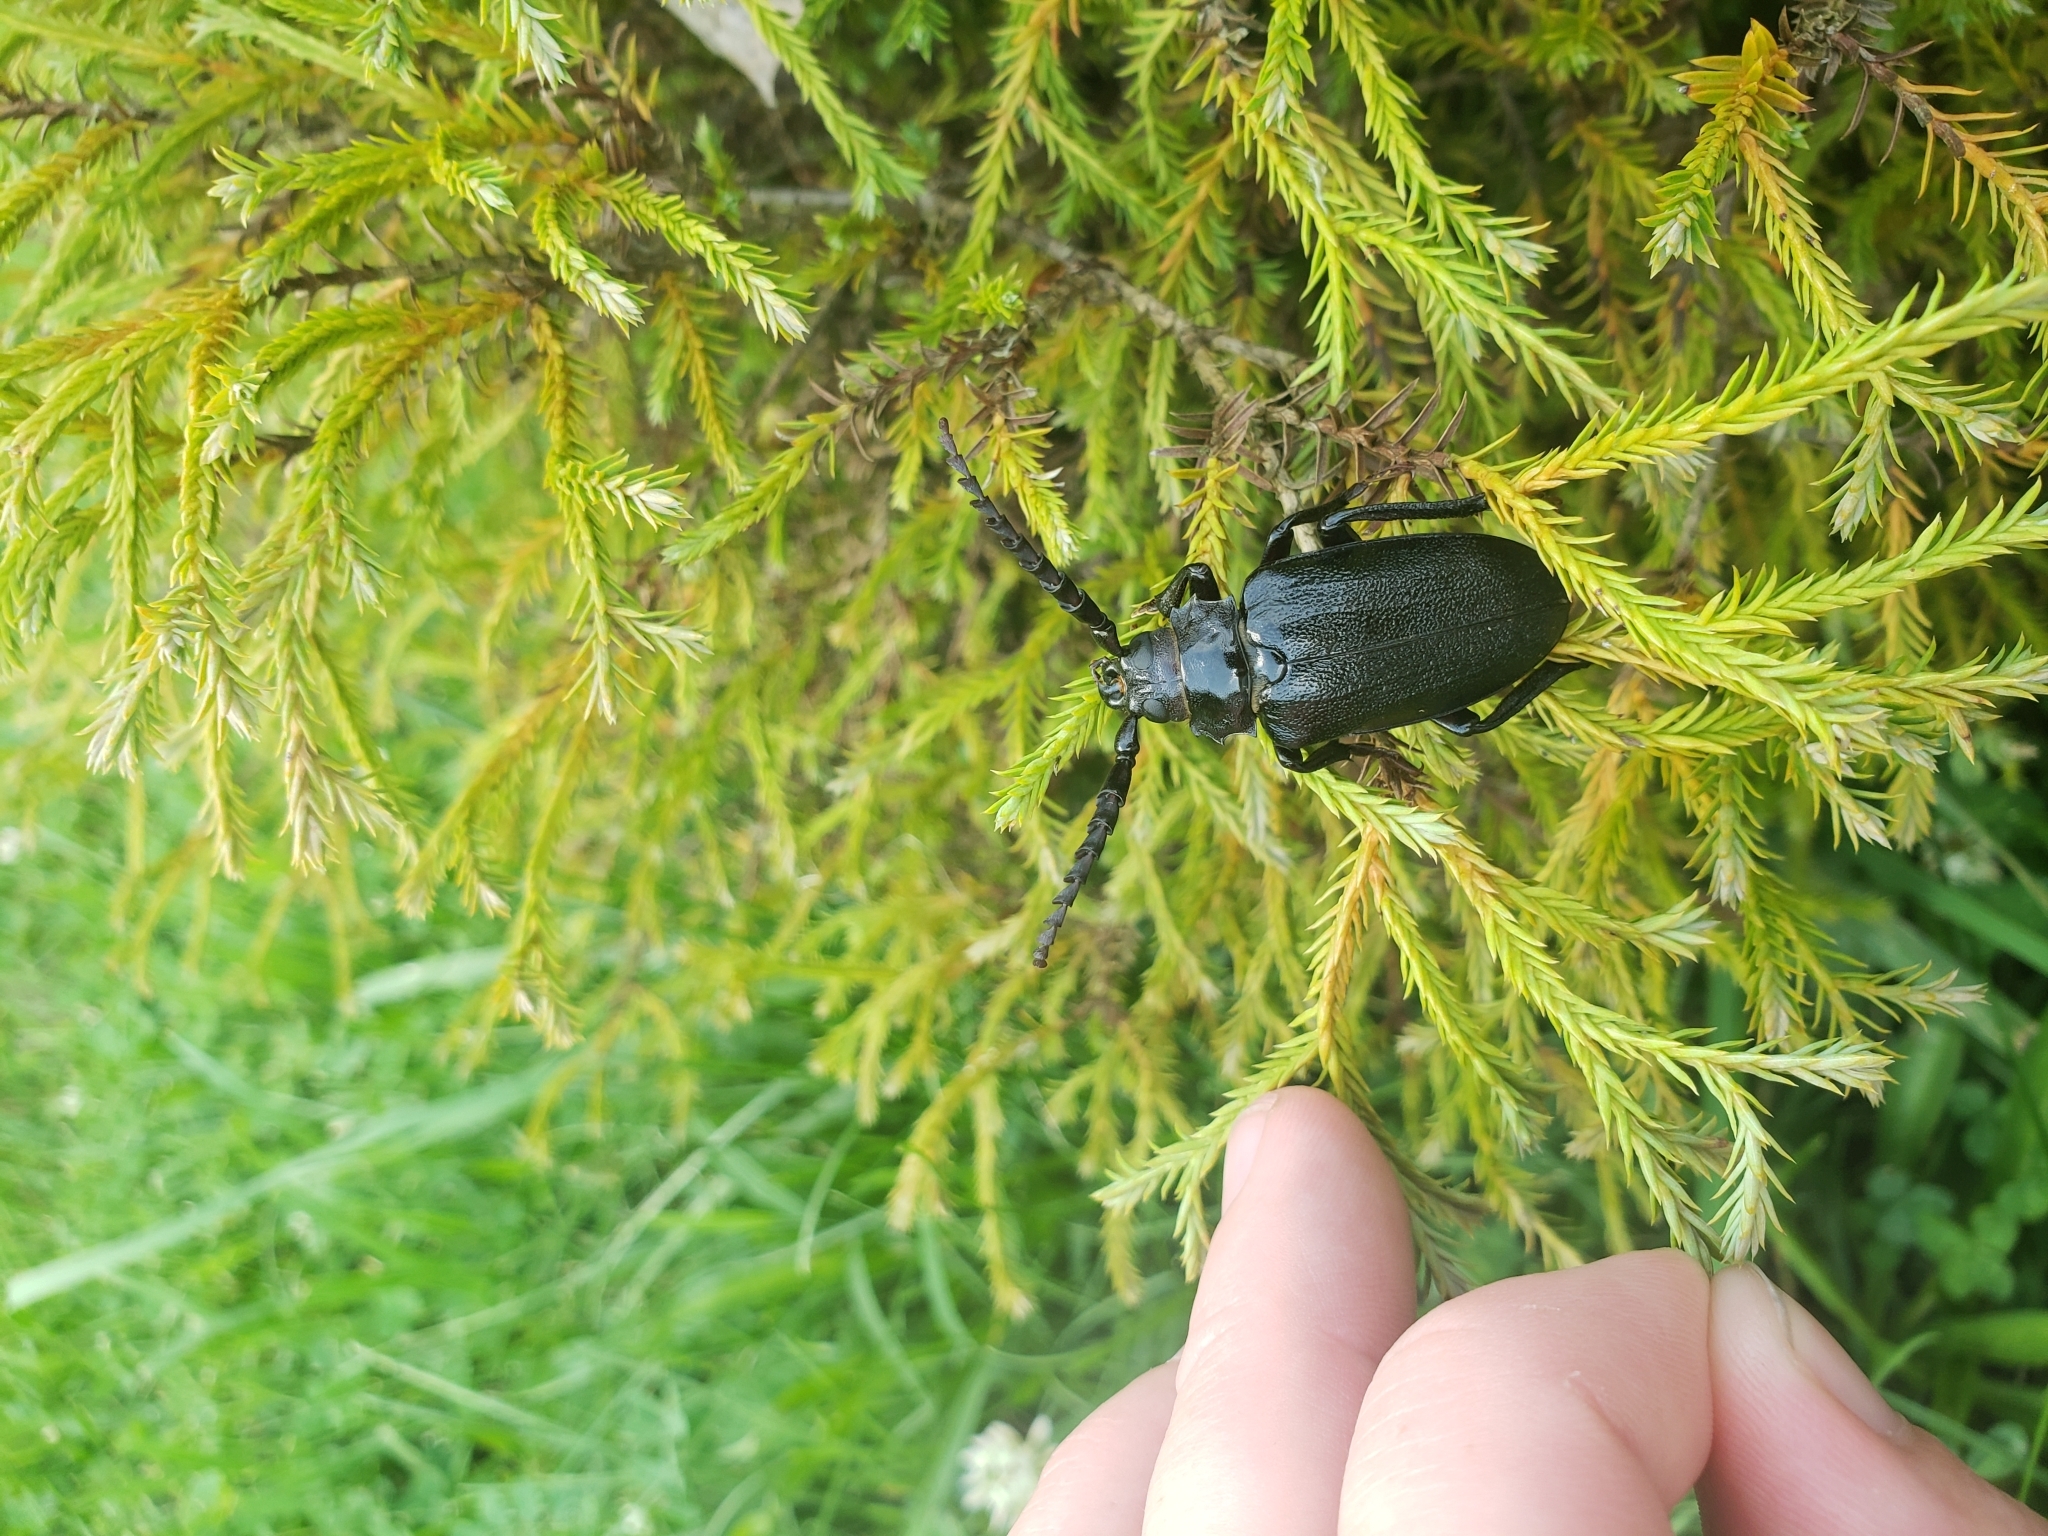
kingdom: Animalia
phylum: Arthropoda
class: Insecta
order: Coleoptera
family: Cerambycidae
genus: Prionus
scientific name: Prionus laticollis
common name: Broad necked prionus
